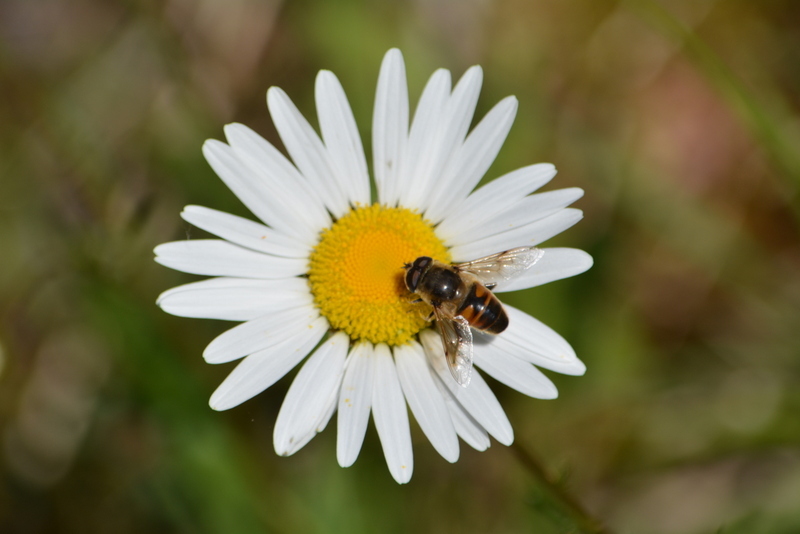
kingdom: Animalia
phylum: Arthropoda
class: Insecta
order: Diptera
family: Syrphidae
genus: Eristalis
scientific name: Eristalis tenax
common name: Drone fly
